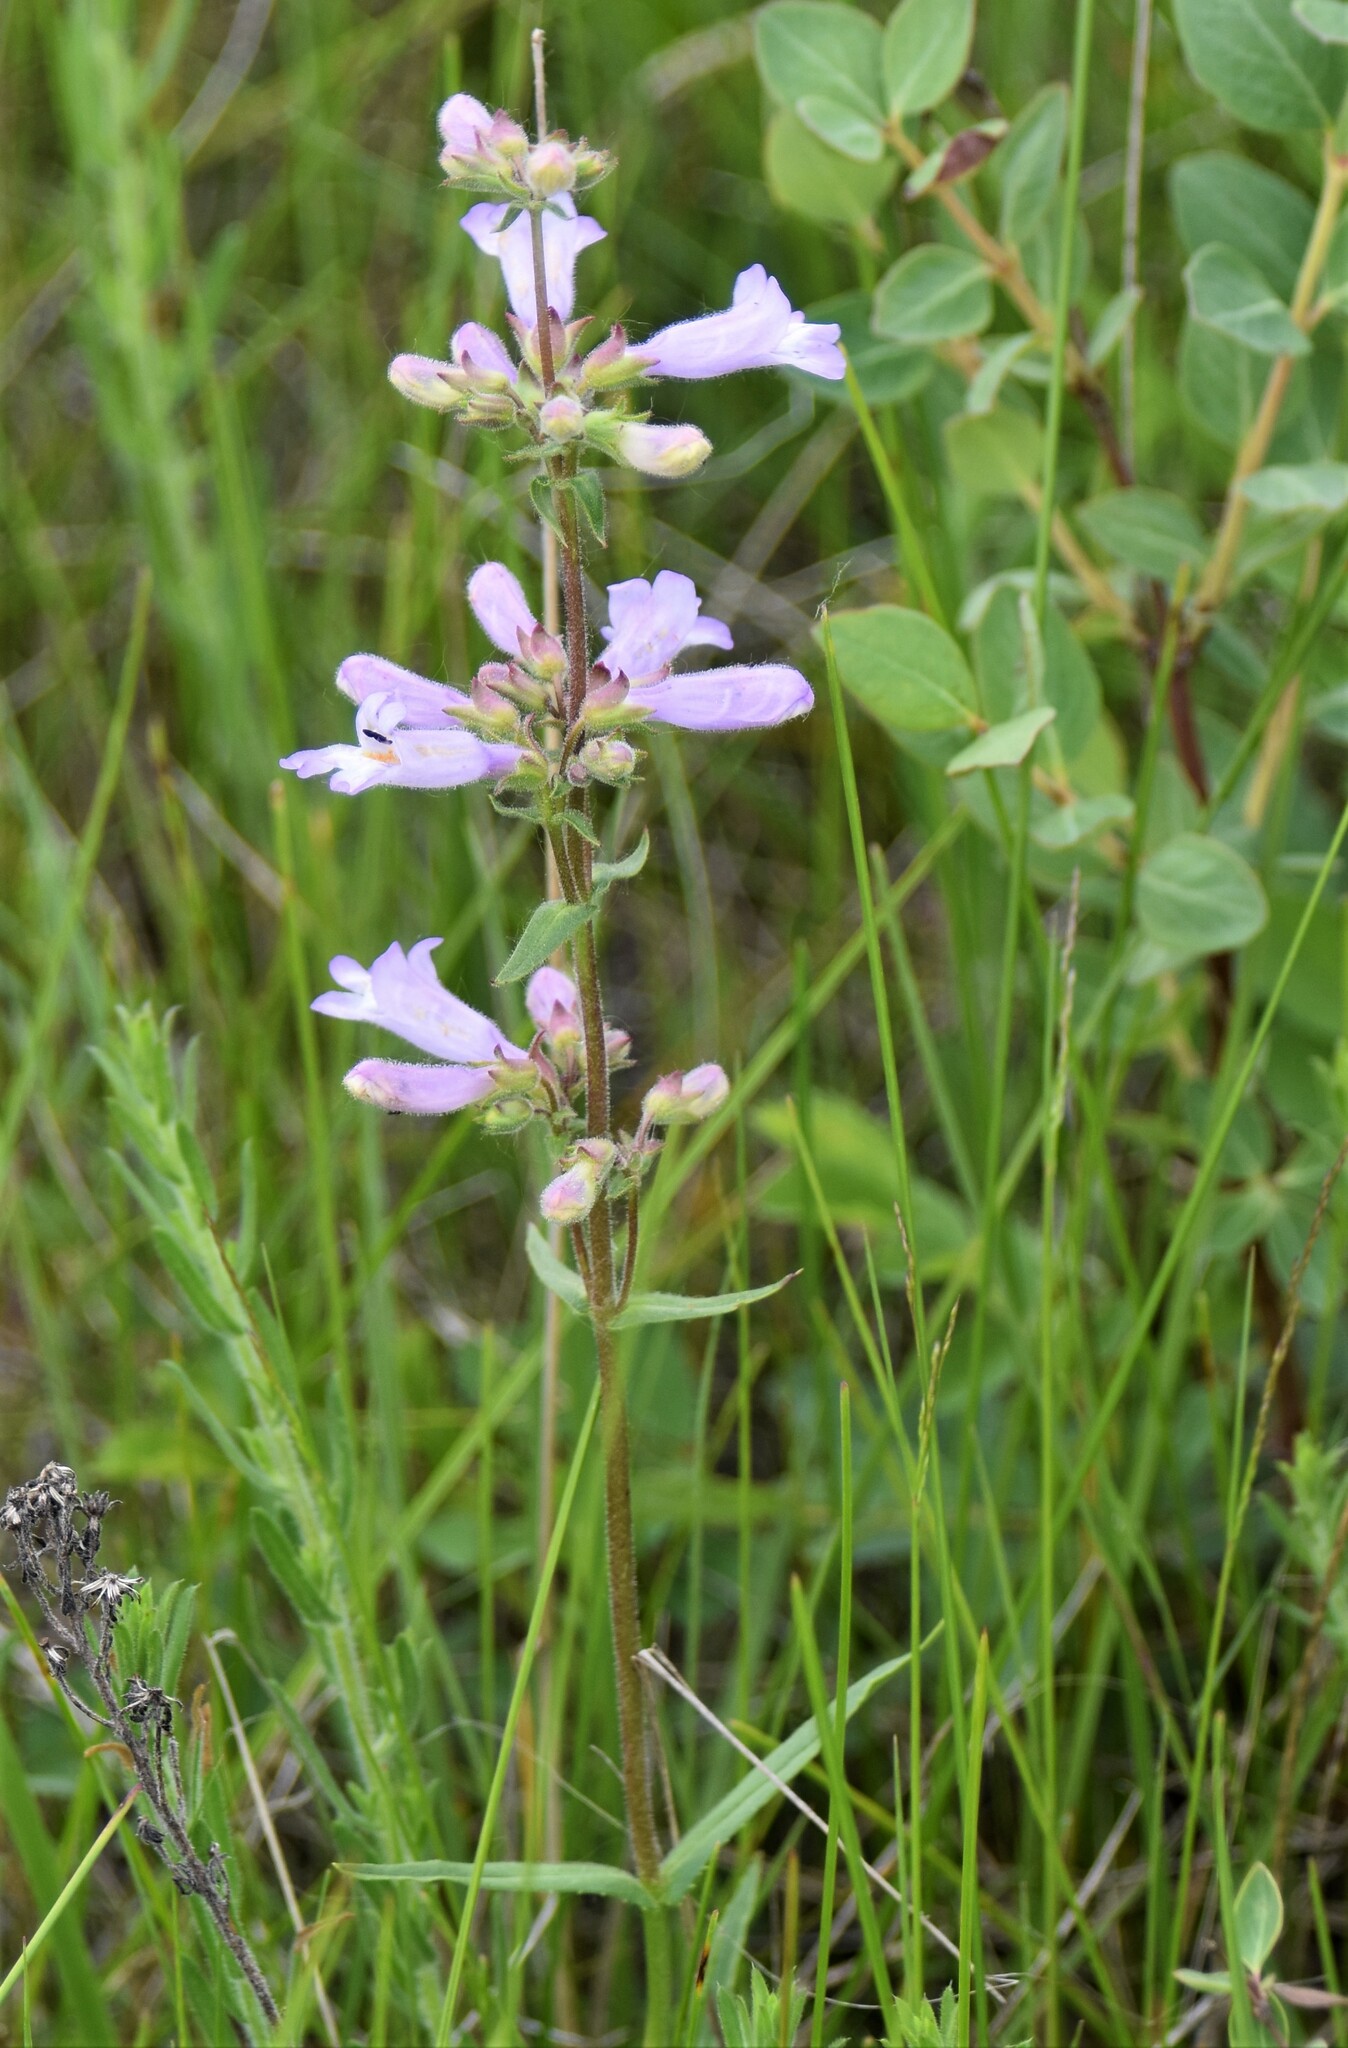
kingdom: Plantae
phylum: Tracheophyta
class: Magnoliopsida
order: Lamiales
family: Plantaginaceae
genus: Penstemon
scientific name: Penstemon gracilis
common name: Slender beardtongue
